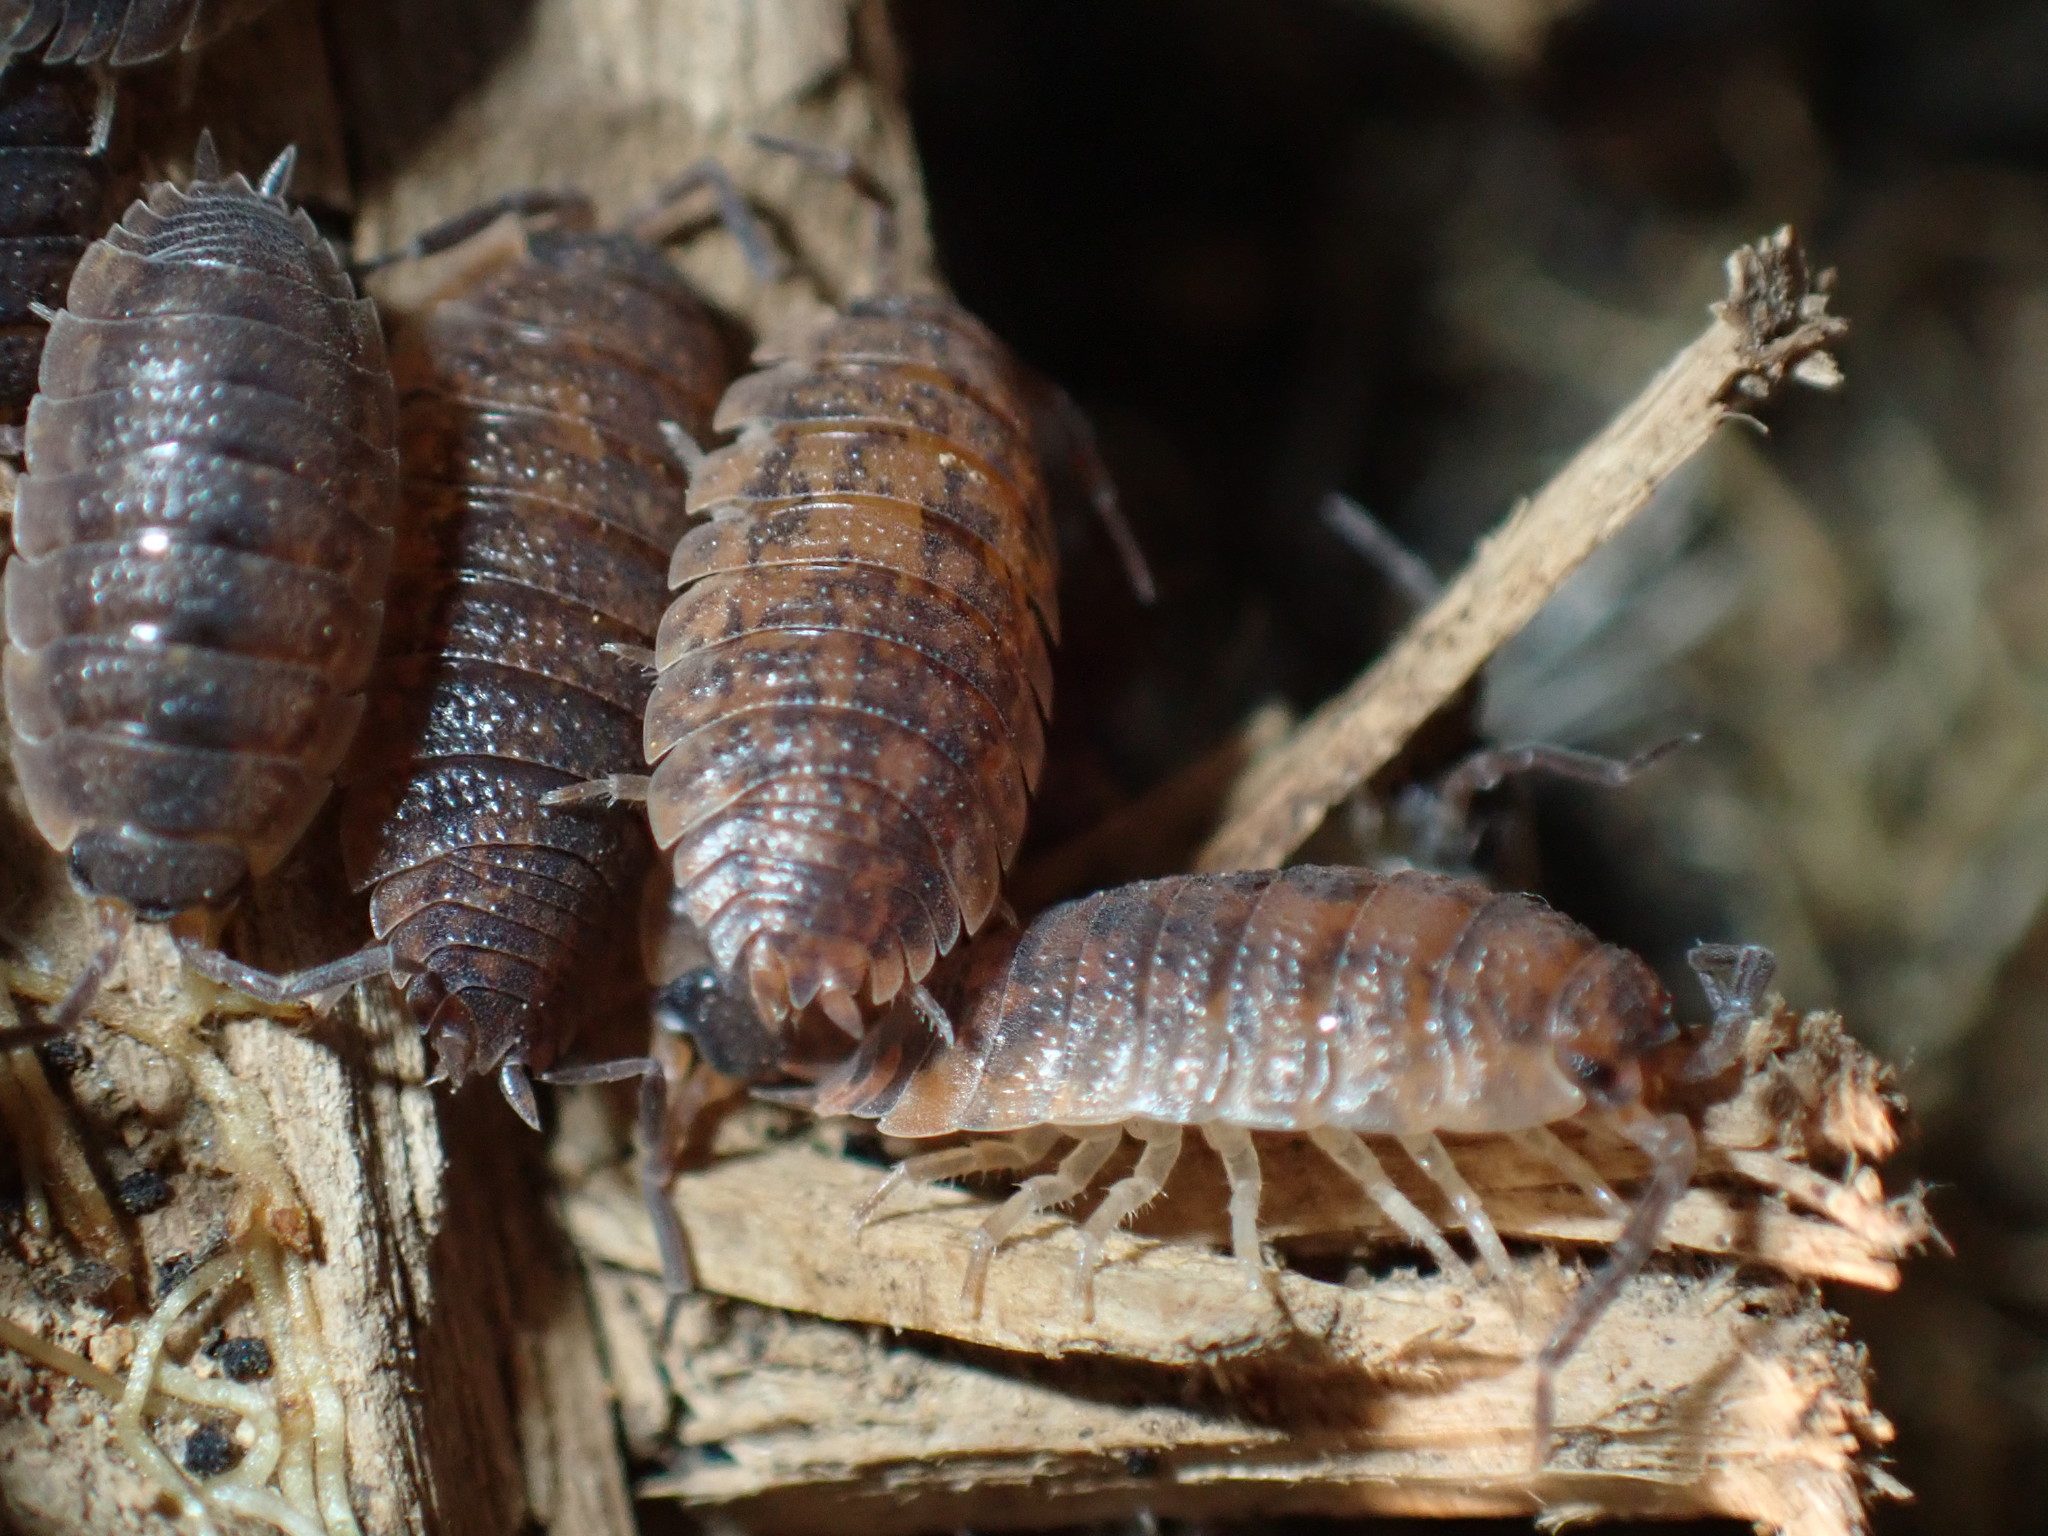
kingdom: Animalia
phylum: Arthropoda
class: Malacostraca
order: Isopoda
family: Porcellionidae
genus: Porcellio
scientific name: Porcellio scaber
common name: Common rough woodlouse
